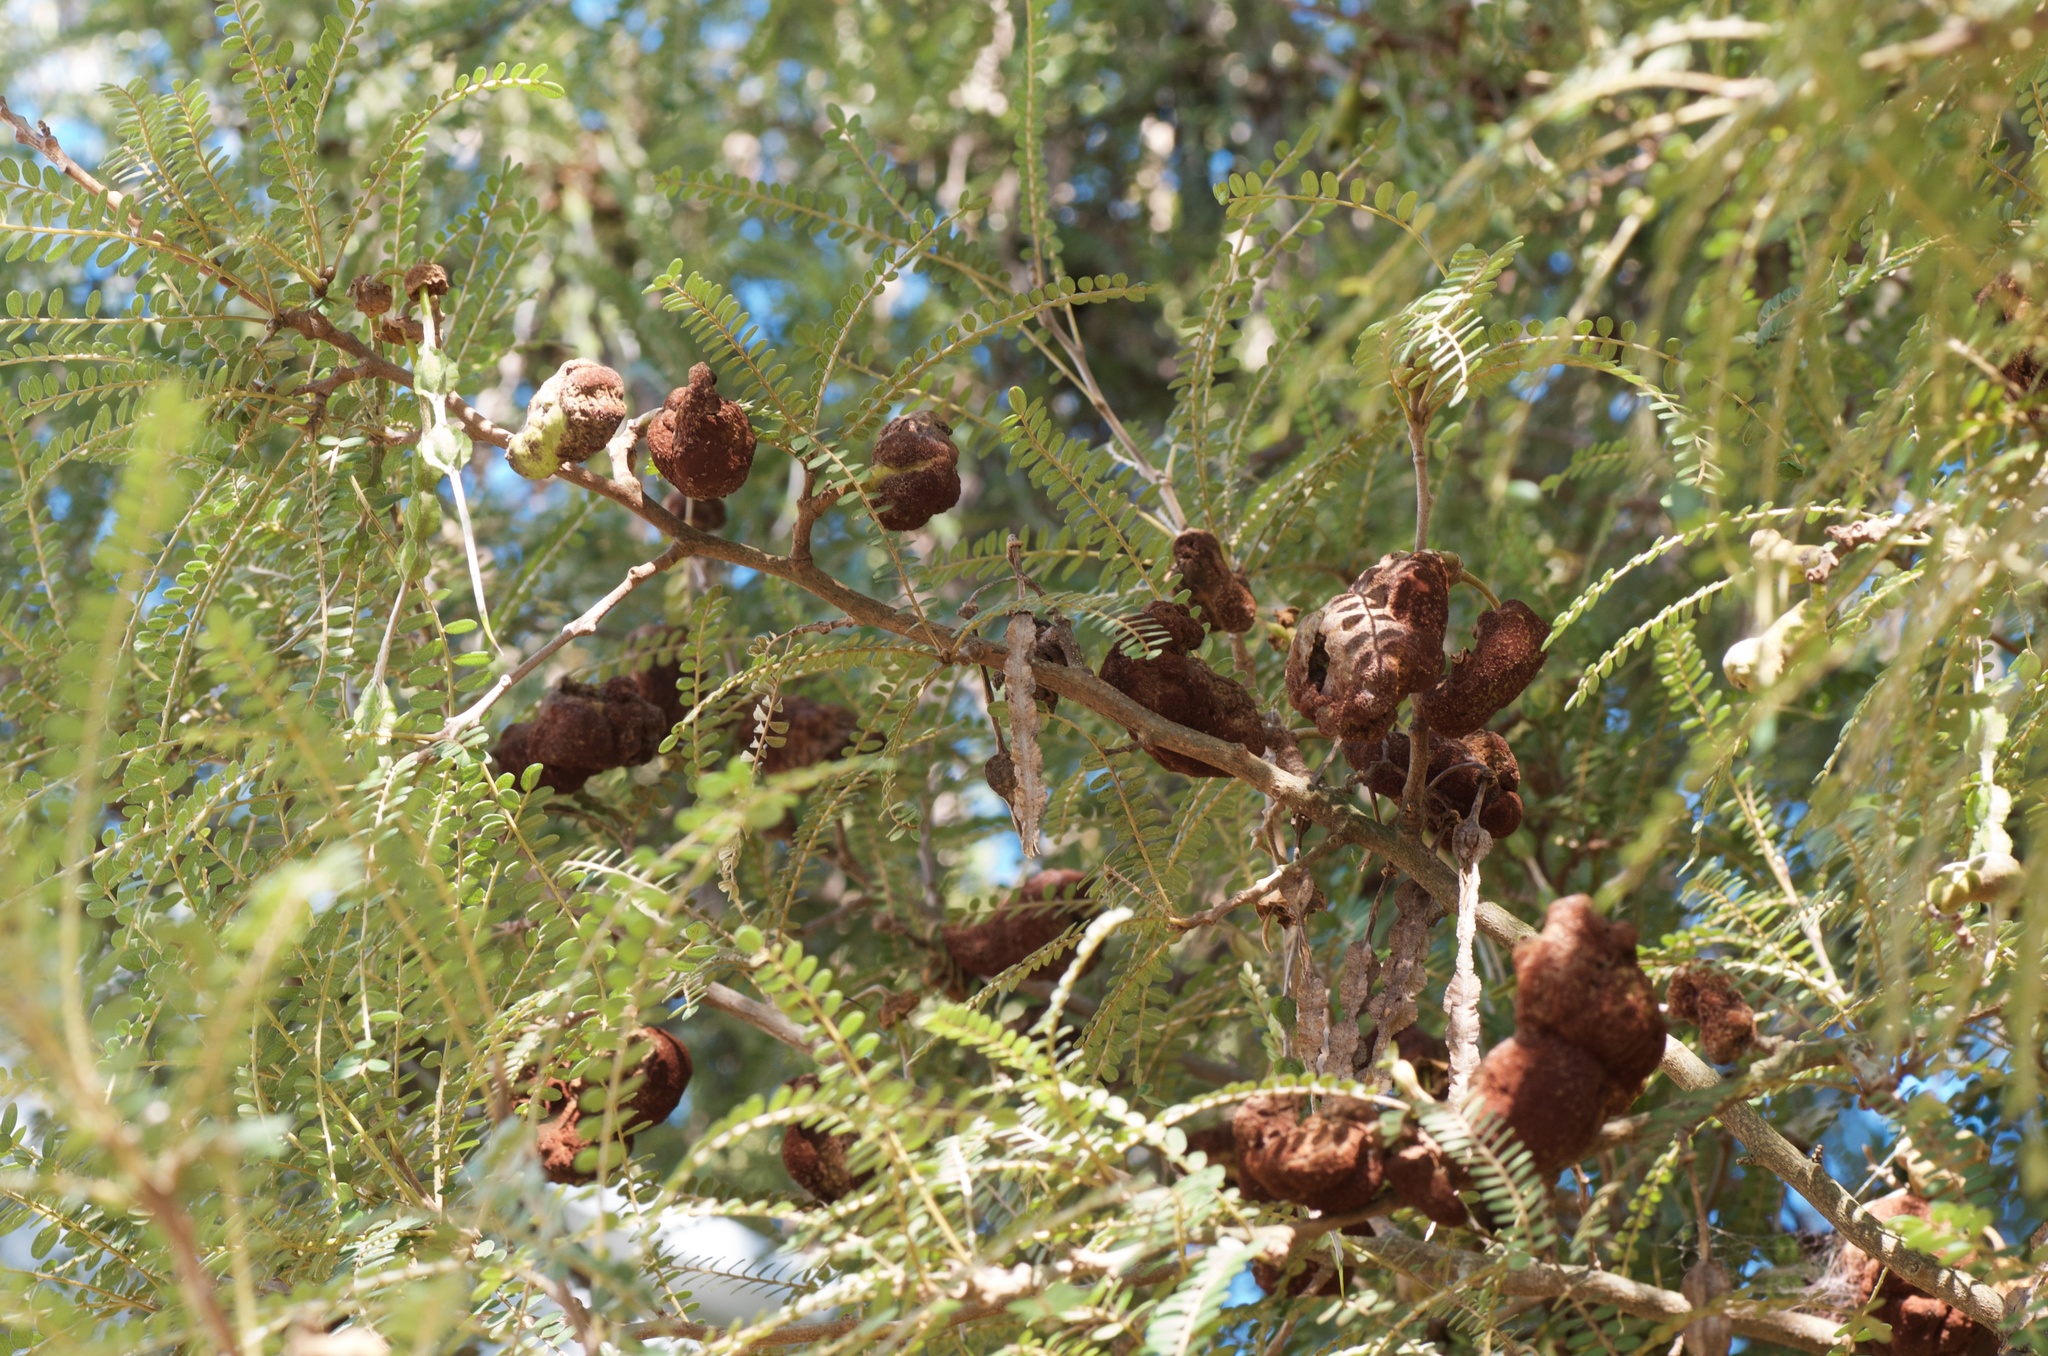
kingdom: Fungi
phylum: Basidiomycota
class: Pucciniomycetes
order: Pucciniales
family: Pucciniaceae
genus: Uromyces
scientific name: Uromyces edwardsiae
